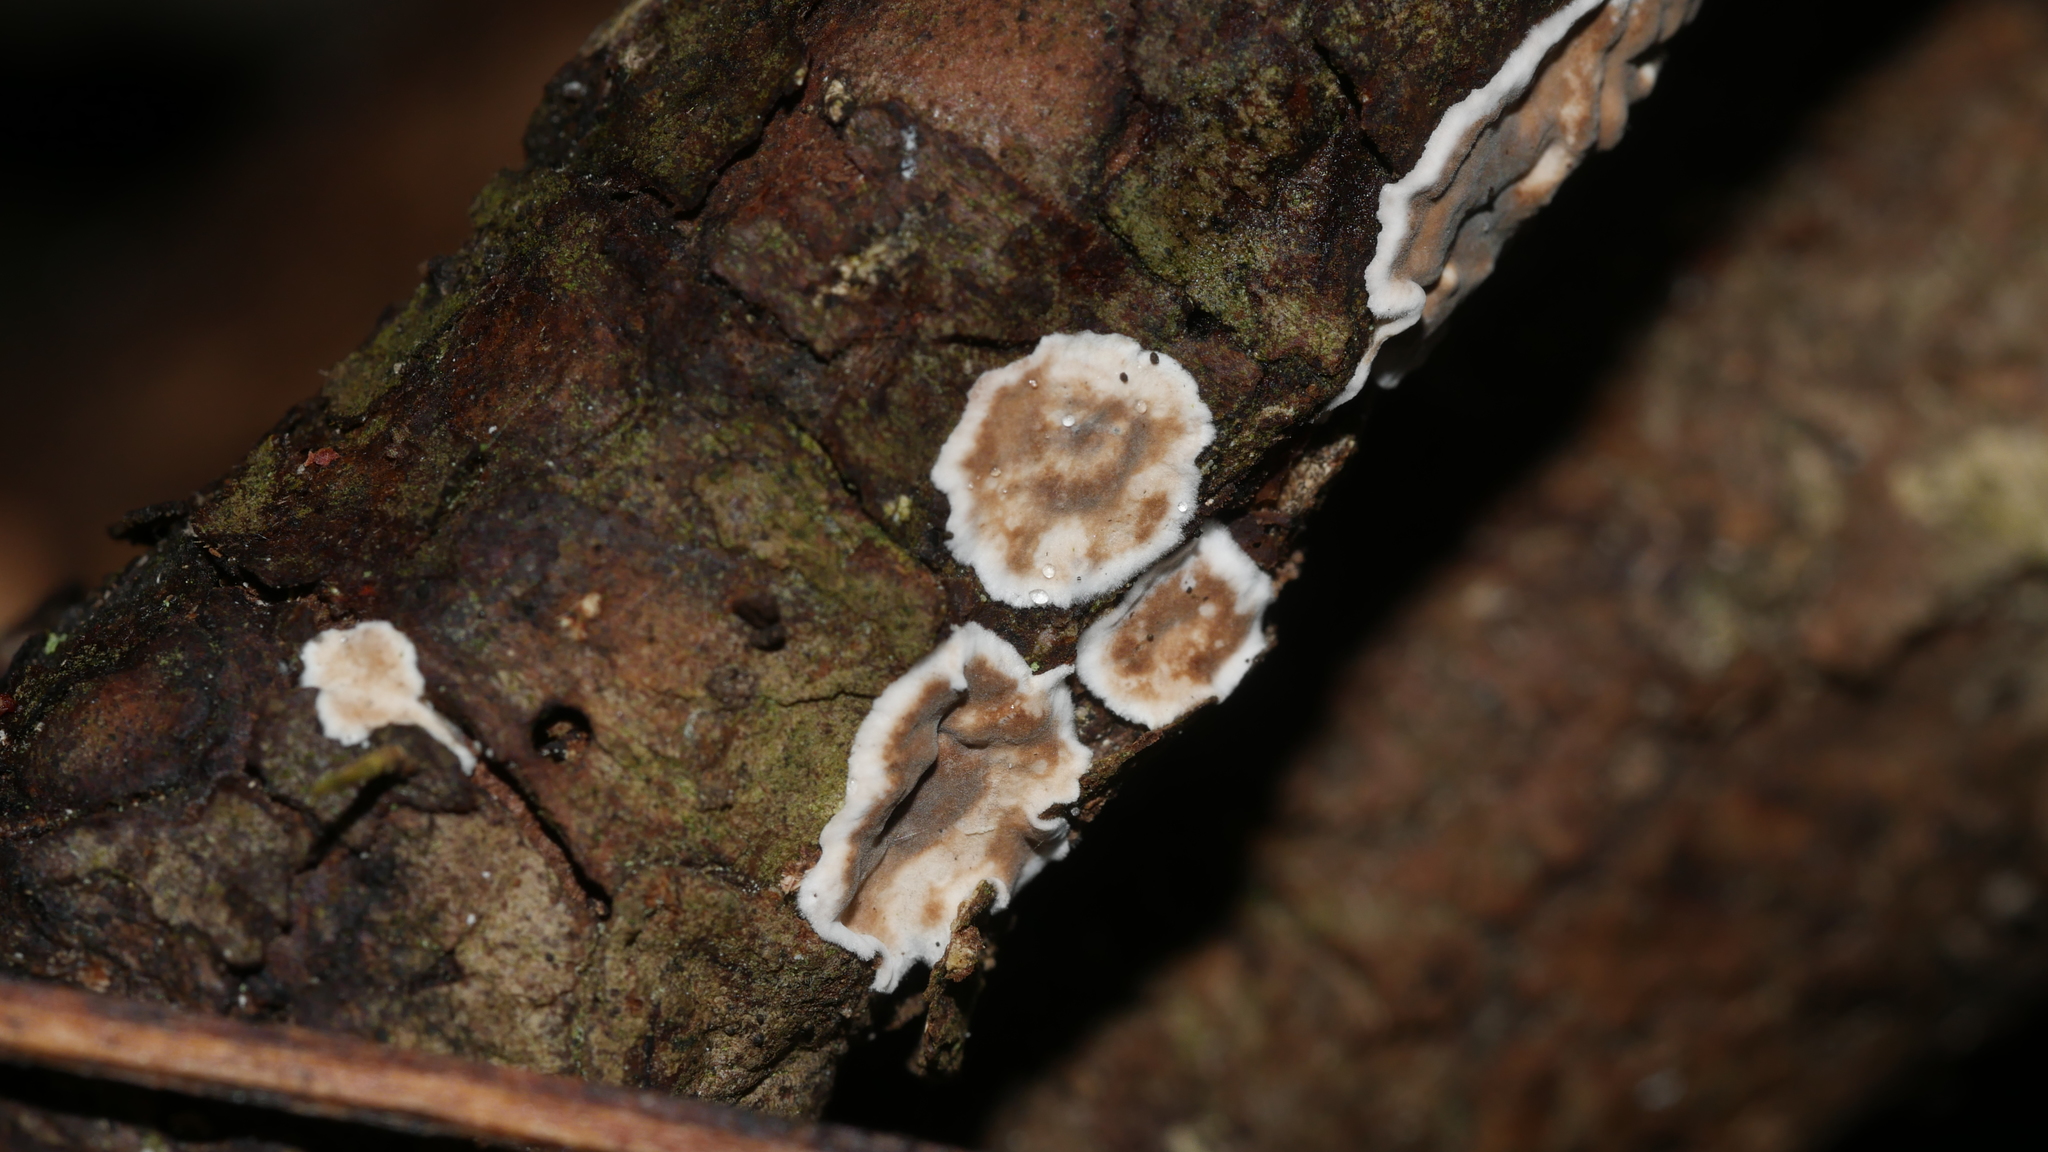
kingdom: Fungi
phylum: Basidiomycota
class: Agaricomycetes
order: Russulales
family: Peniophoraceae
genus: Peniophora
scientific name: Peniophora albobadia
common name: Giraffe spots
